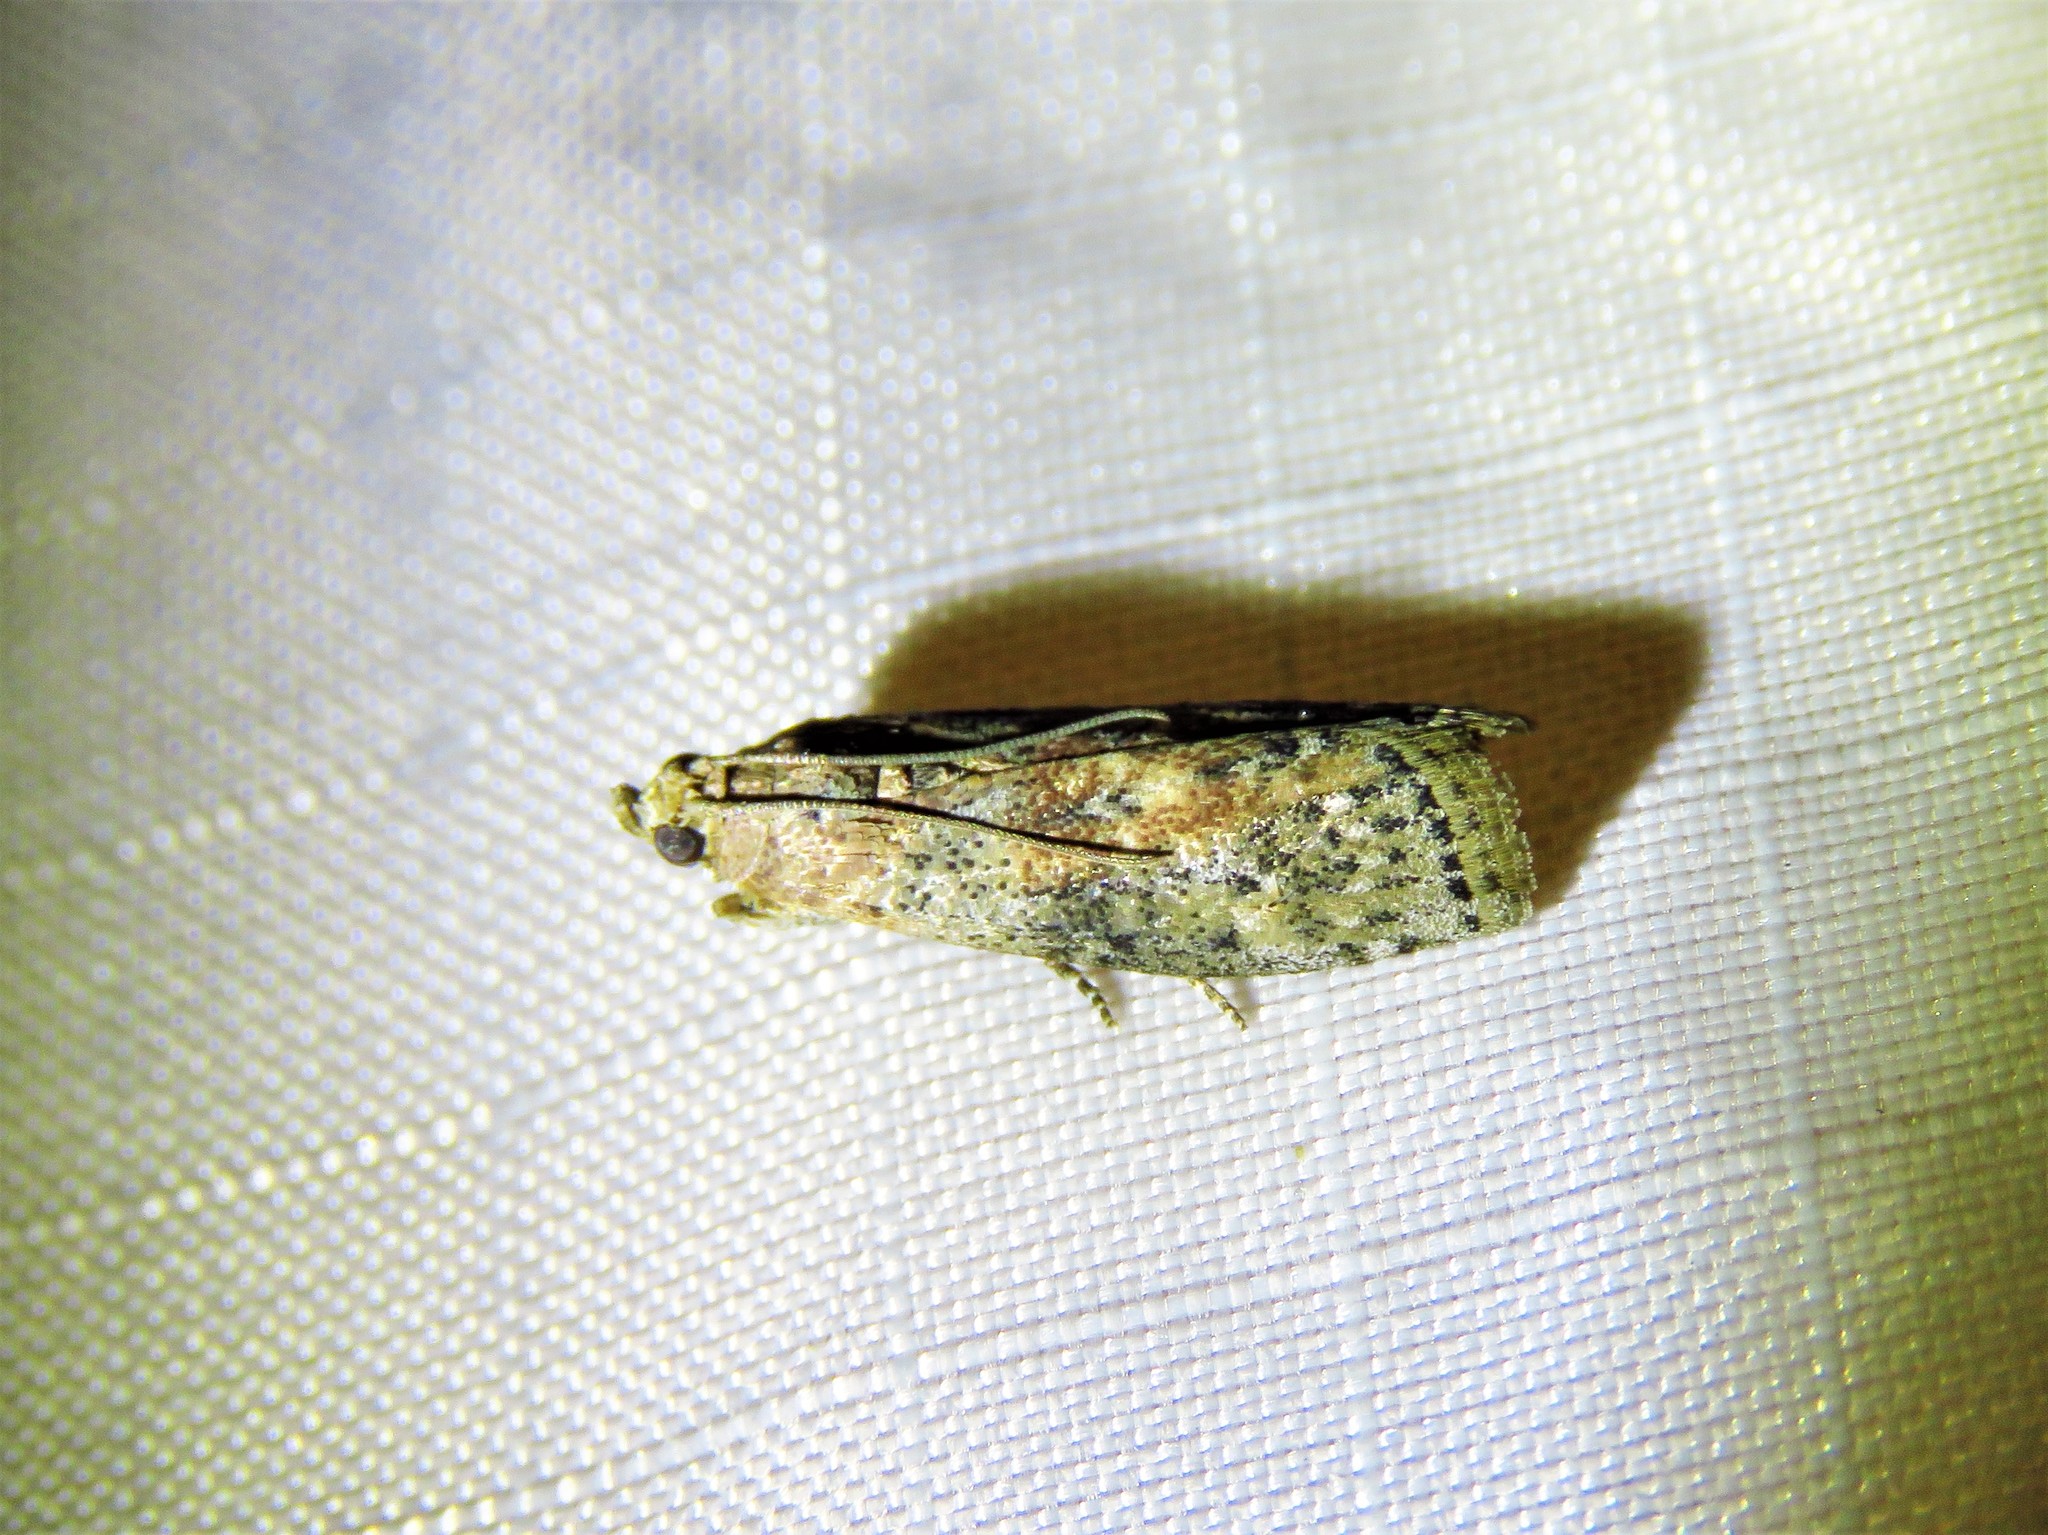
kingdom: Animalia
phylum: Arthropoda
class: Insecta
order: Lepidoptera
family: Pyralidae
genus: Sciota
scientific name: Sciota celtidella
